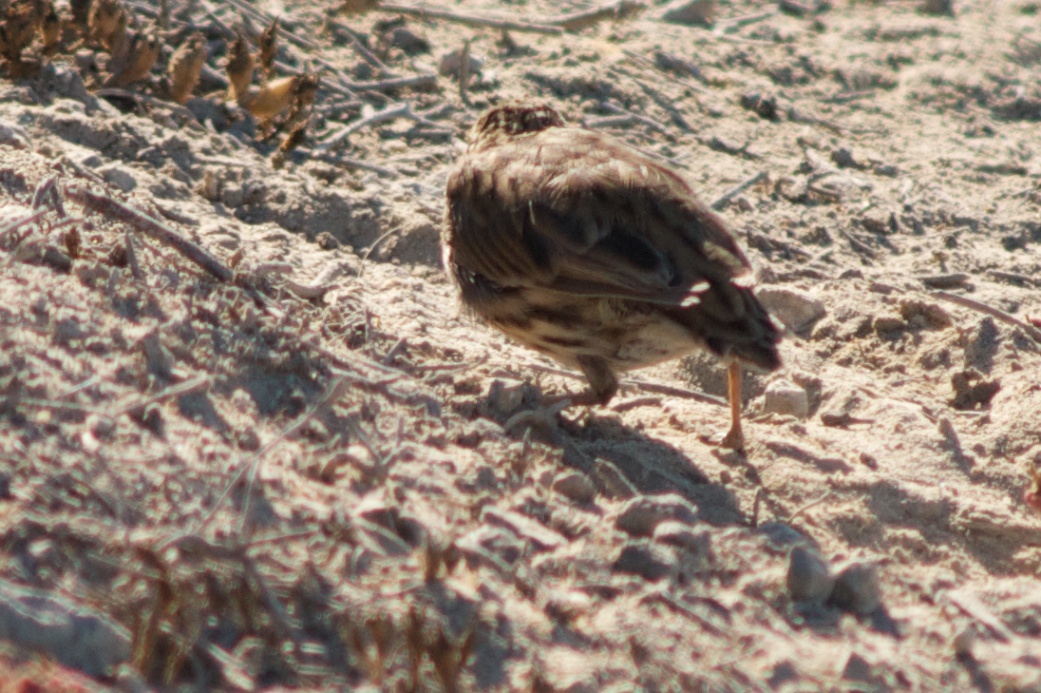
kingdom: Animalia
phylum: Chordata
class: Aves
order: Passeriformes
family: Passerellidae
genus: Passerculus
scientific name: Passerculus sandwichensis
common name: Savannah sparrow
